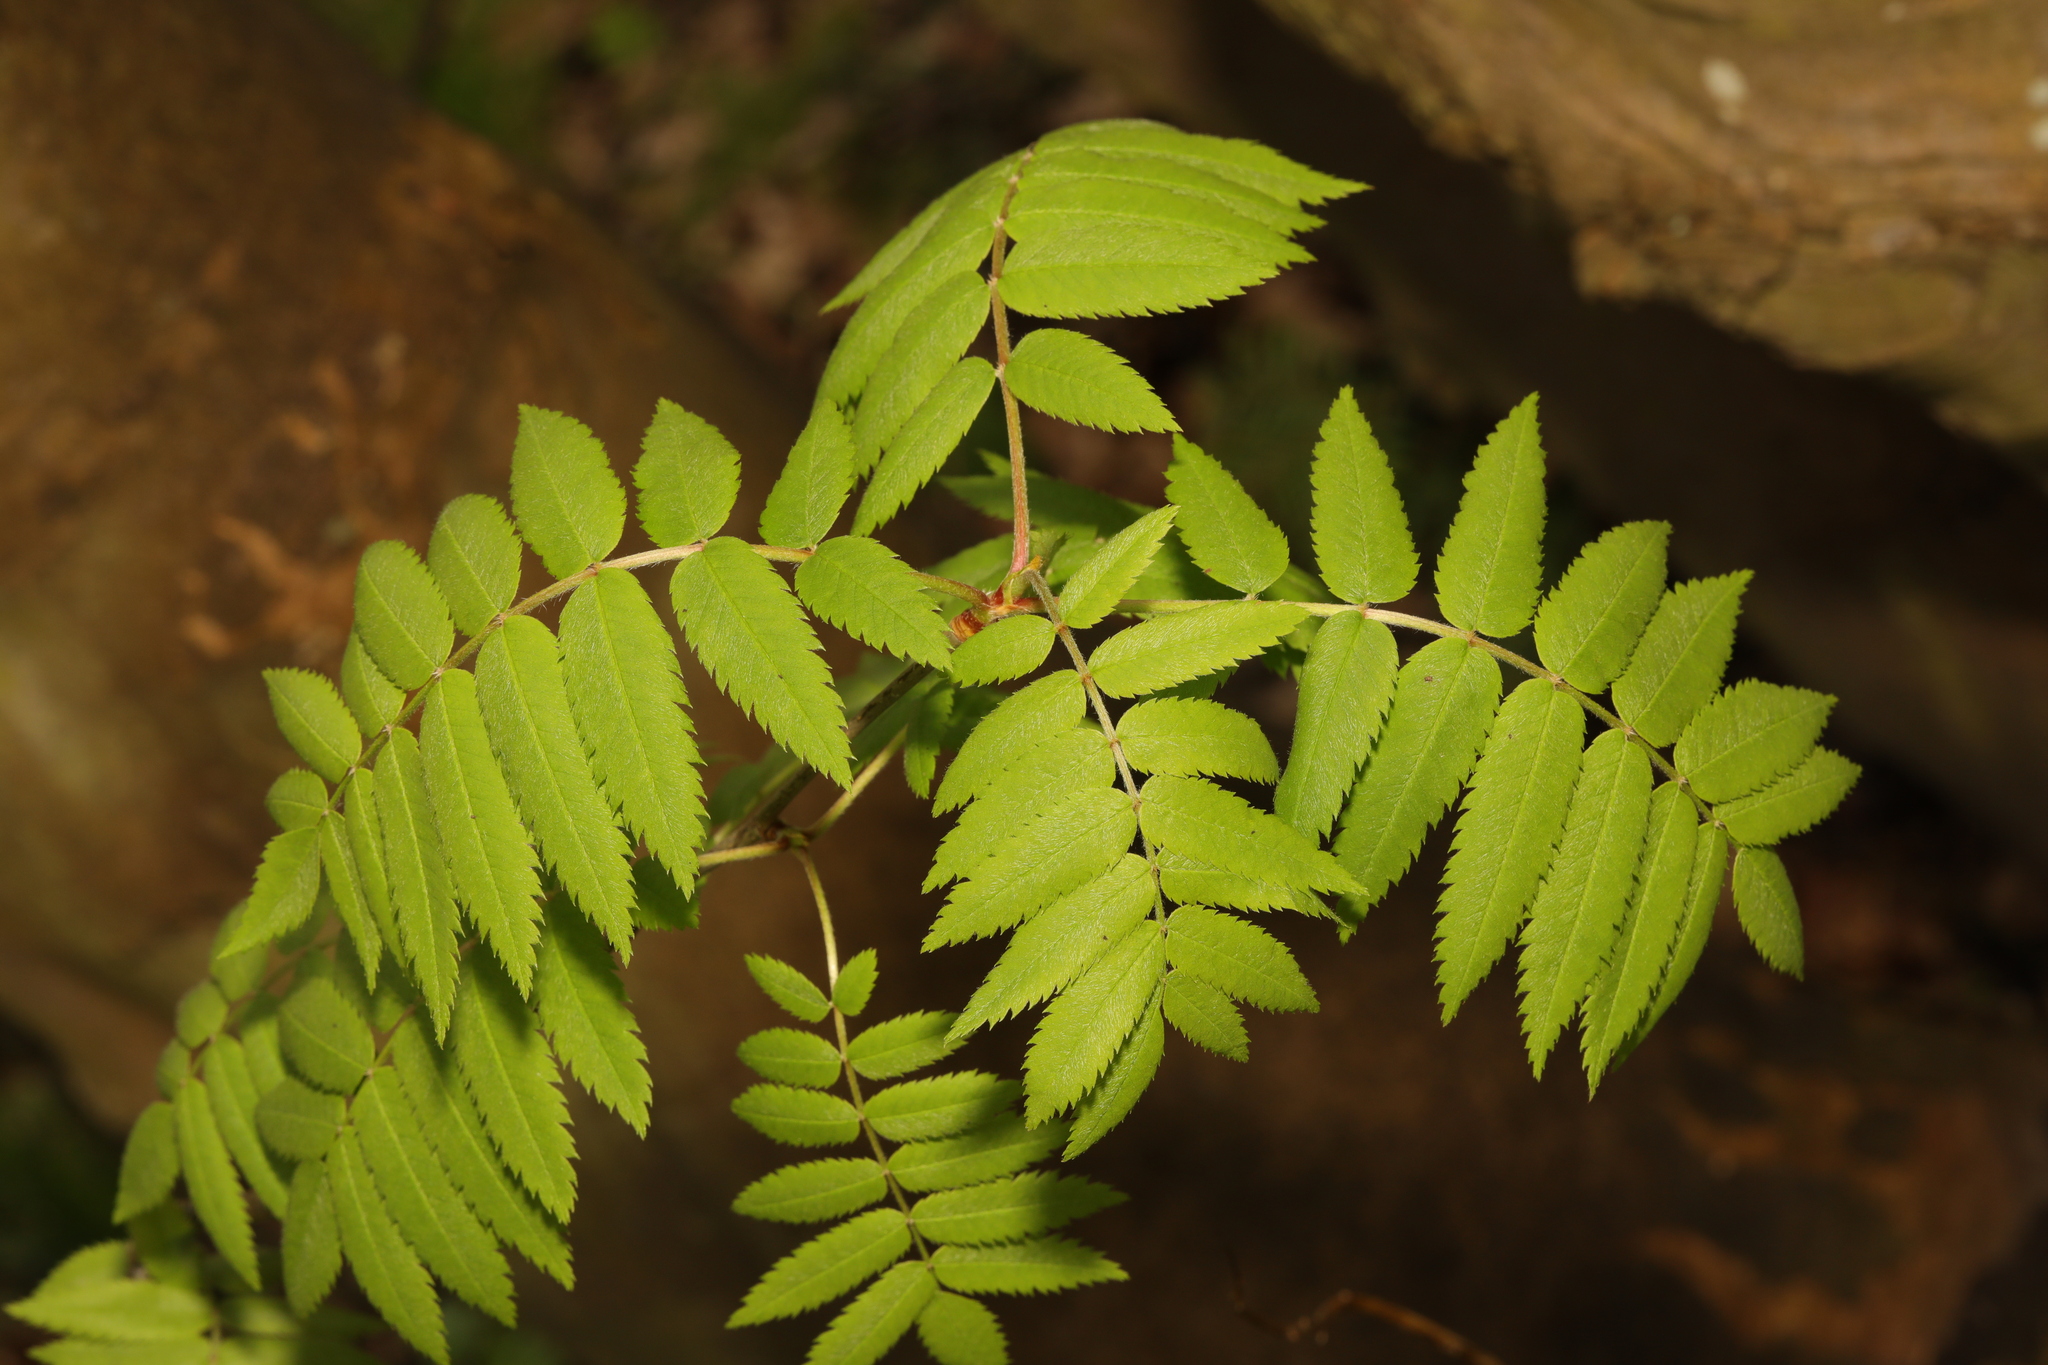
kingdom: Plantae
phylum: Tracheophyta
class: Magnoliopsida
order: Rosales
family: Rosaceae
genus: Sorbus
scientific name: Sorbus aucuparia
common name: Rowan
